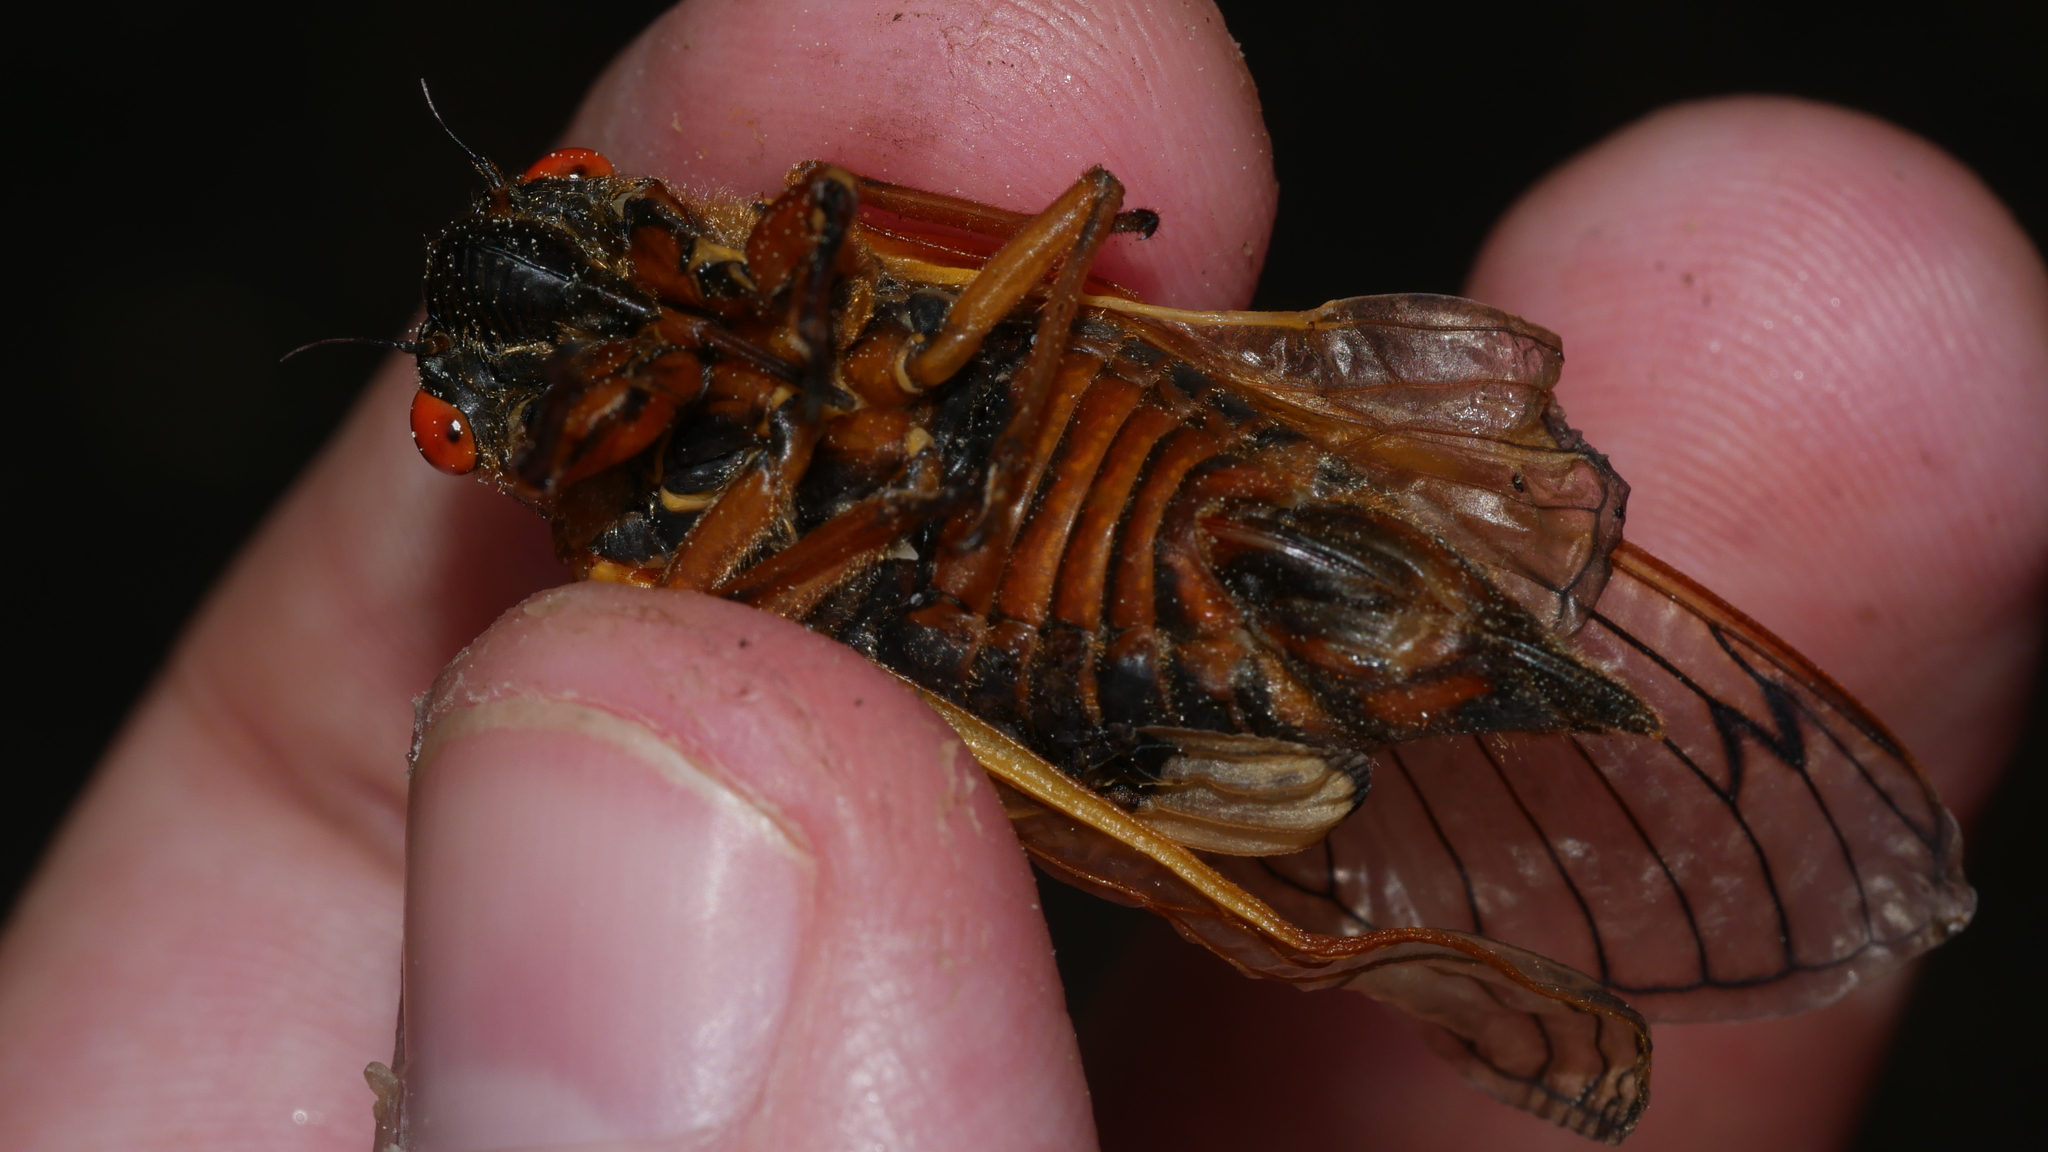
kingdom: Animalia
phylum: Arthropoda
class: Insecta
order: Hemiptera
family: Cicadidae
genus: Magicicada
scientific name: Magicicada septendecim
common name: Periodical cicada
